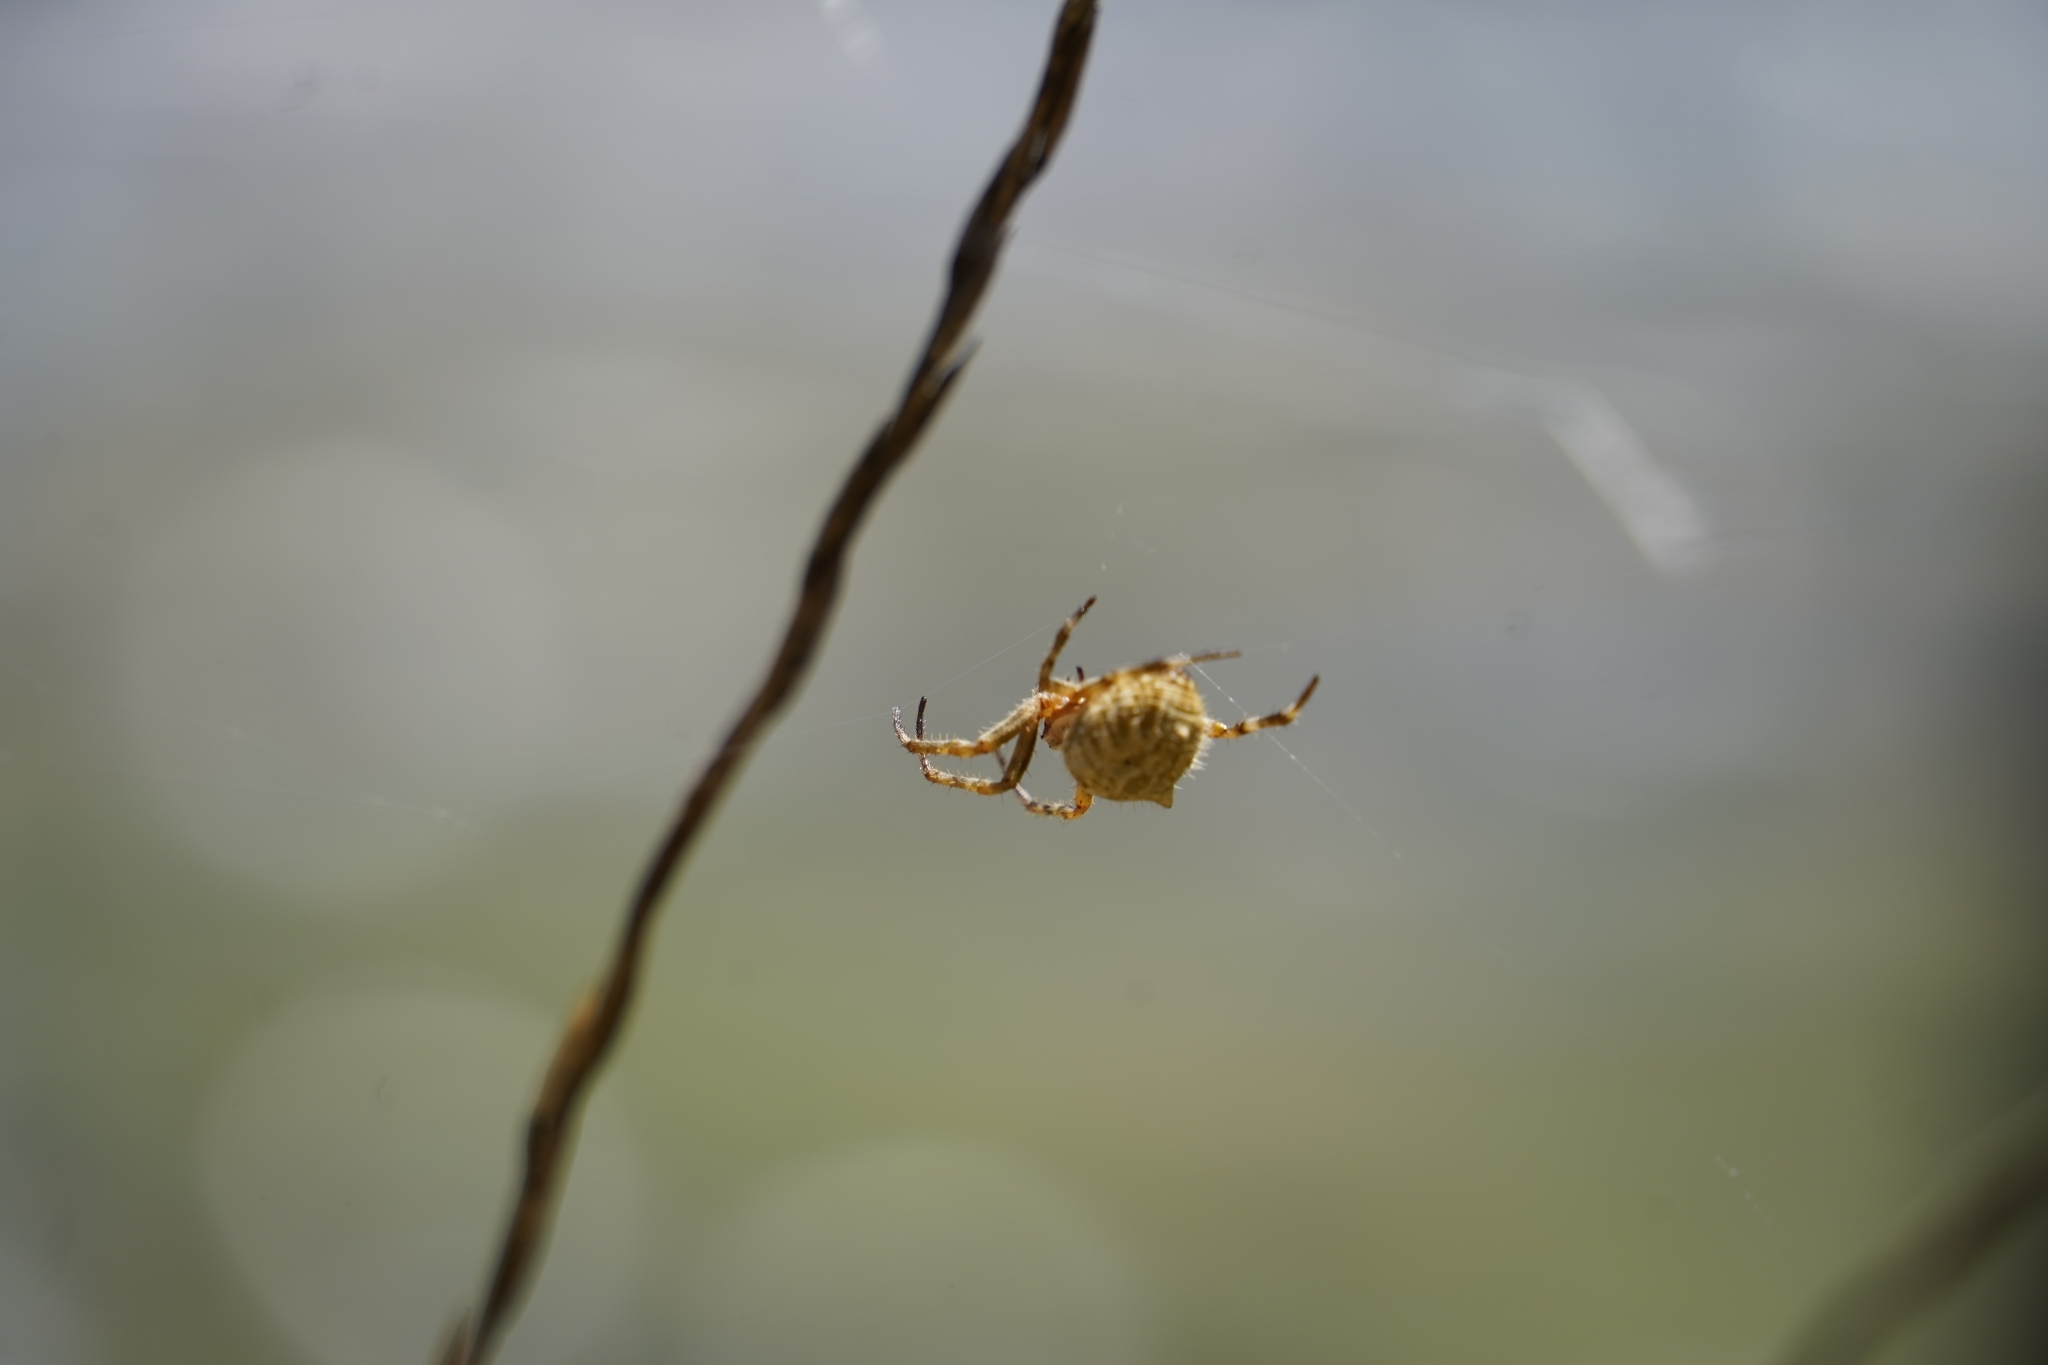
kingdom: Animalia
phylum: Arthropoda
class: Arachnida
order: Araneae
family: Araneidae
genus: Backobourkia
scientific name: Backobourkia brouni
